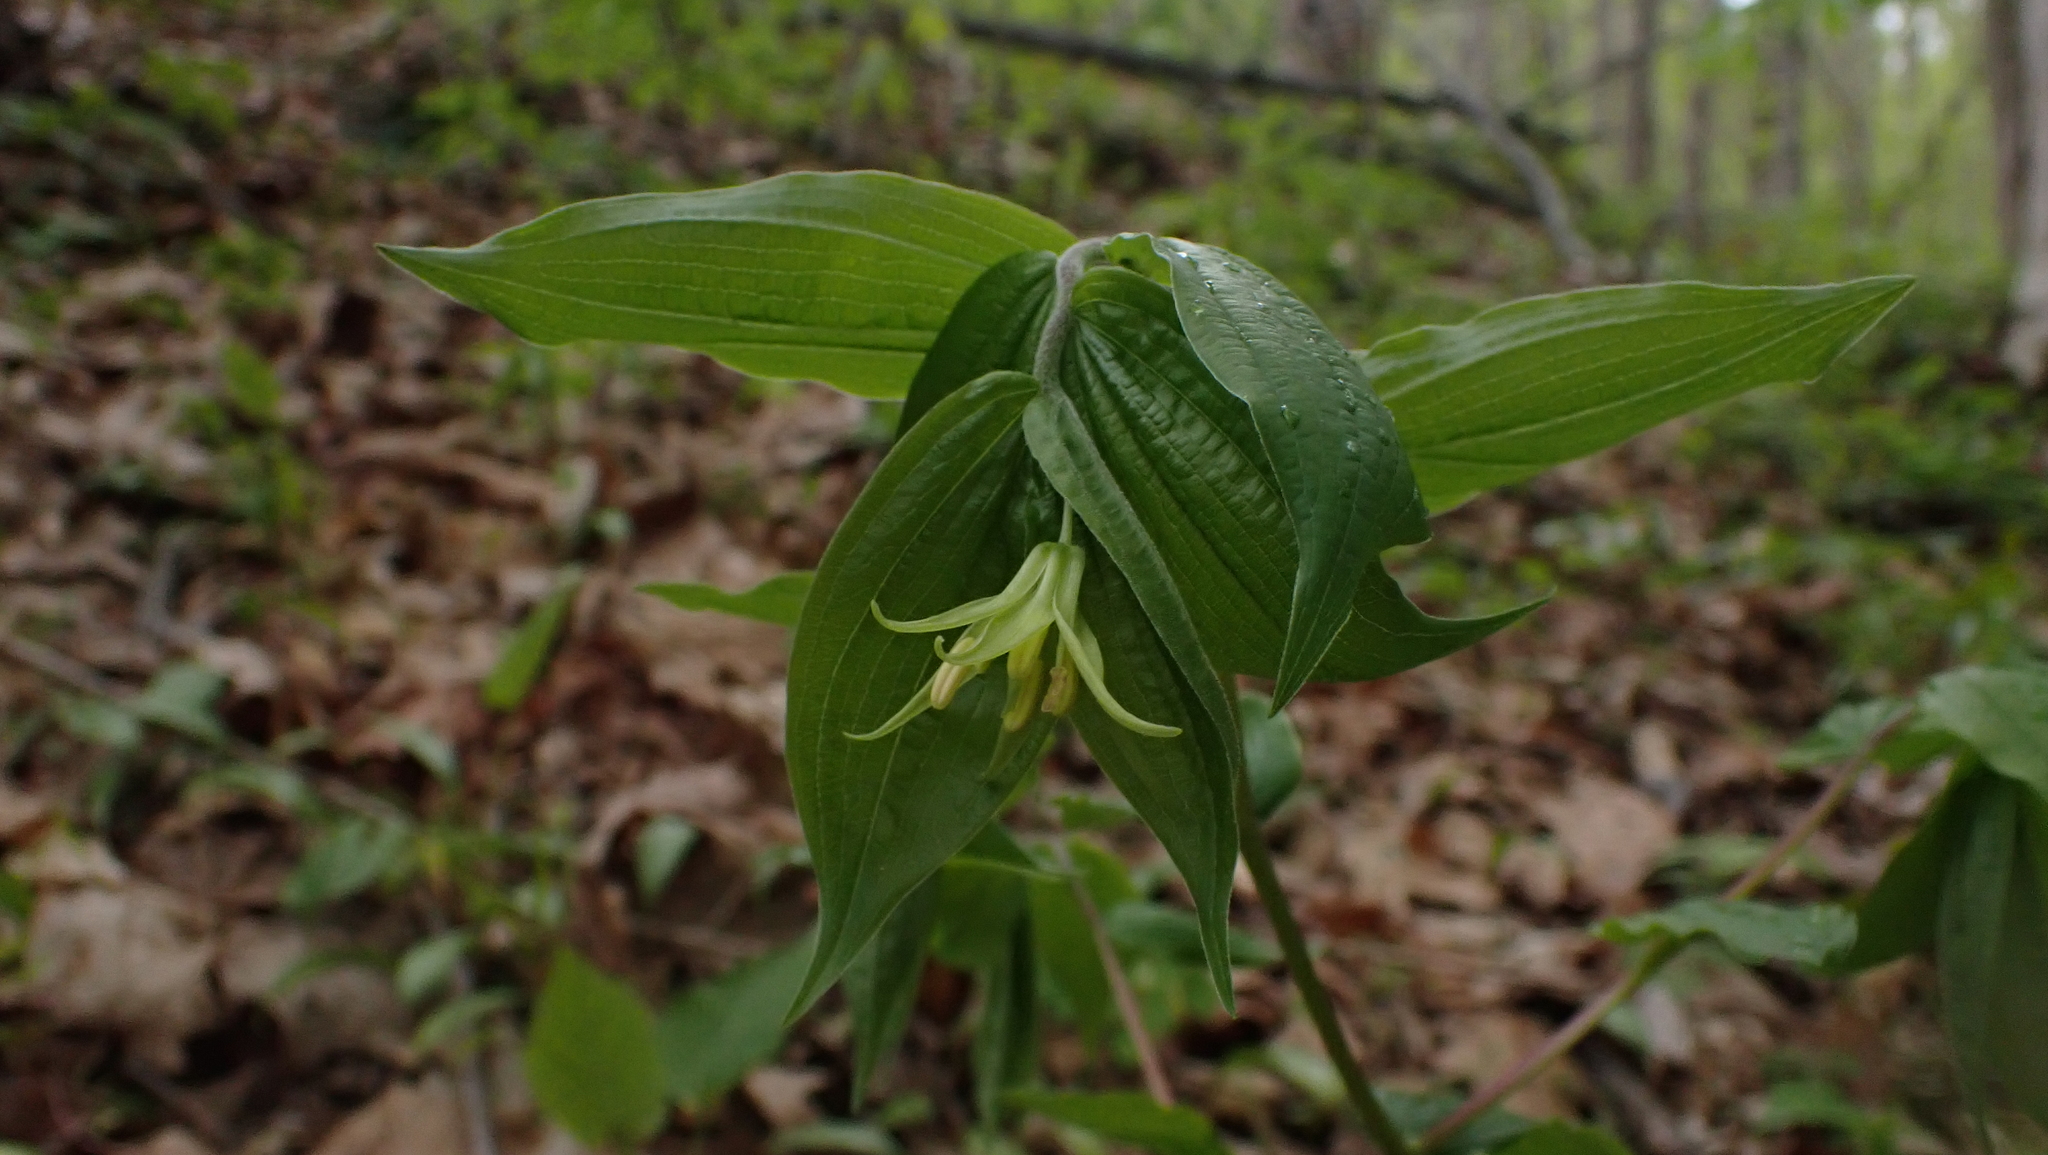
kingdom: Plantae
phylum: Tracheophyta
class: Liliopsida
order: Liliales
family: Liliaceae
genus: Prosartes
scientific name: Prosartes lanuginosa
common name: Hairy mandarin
